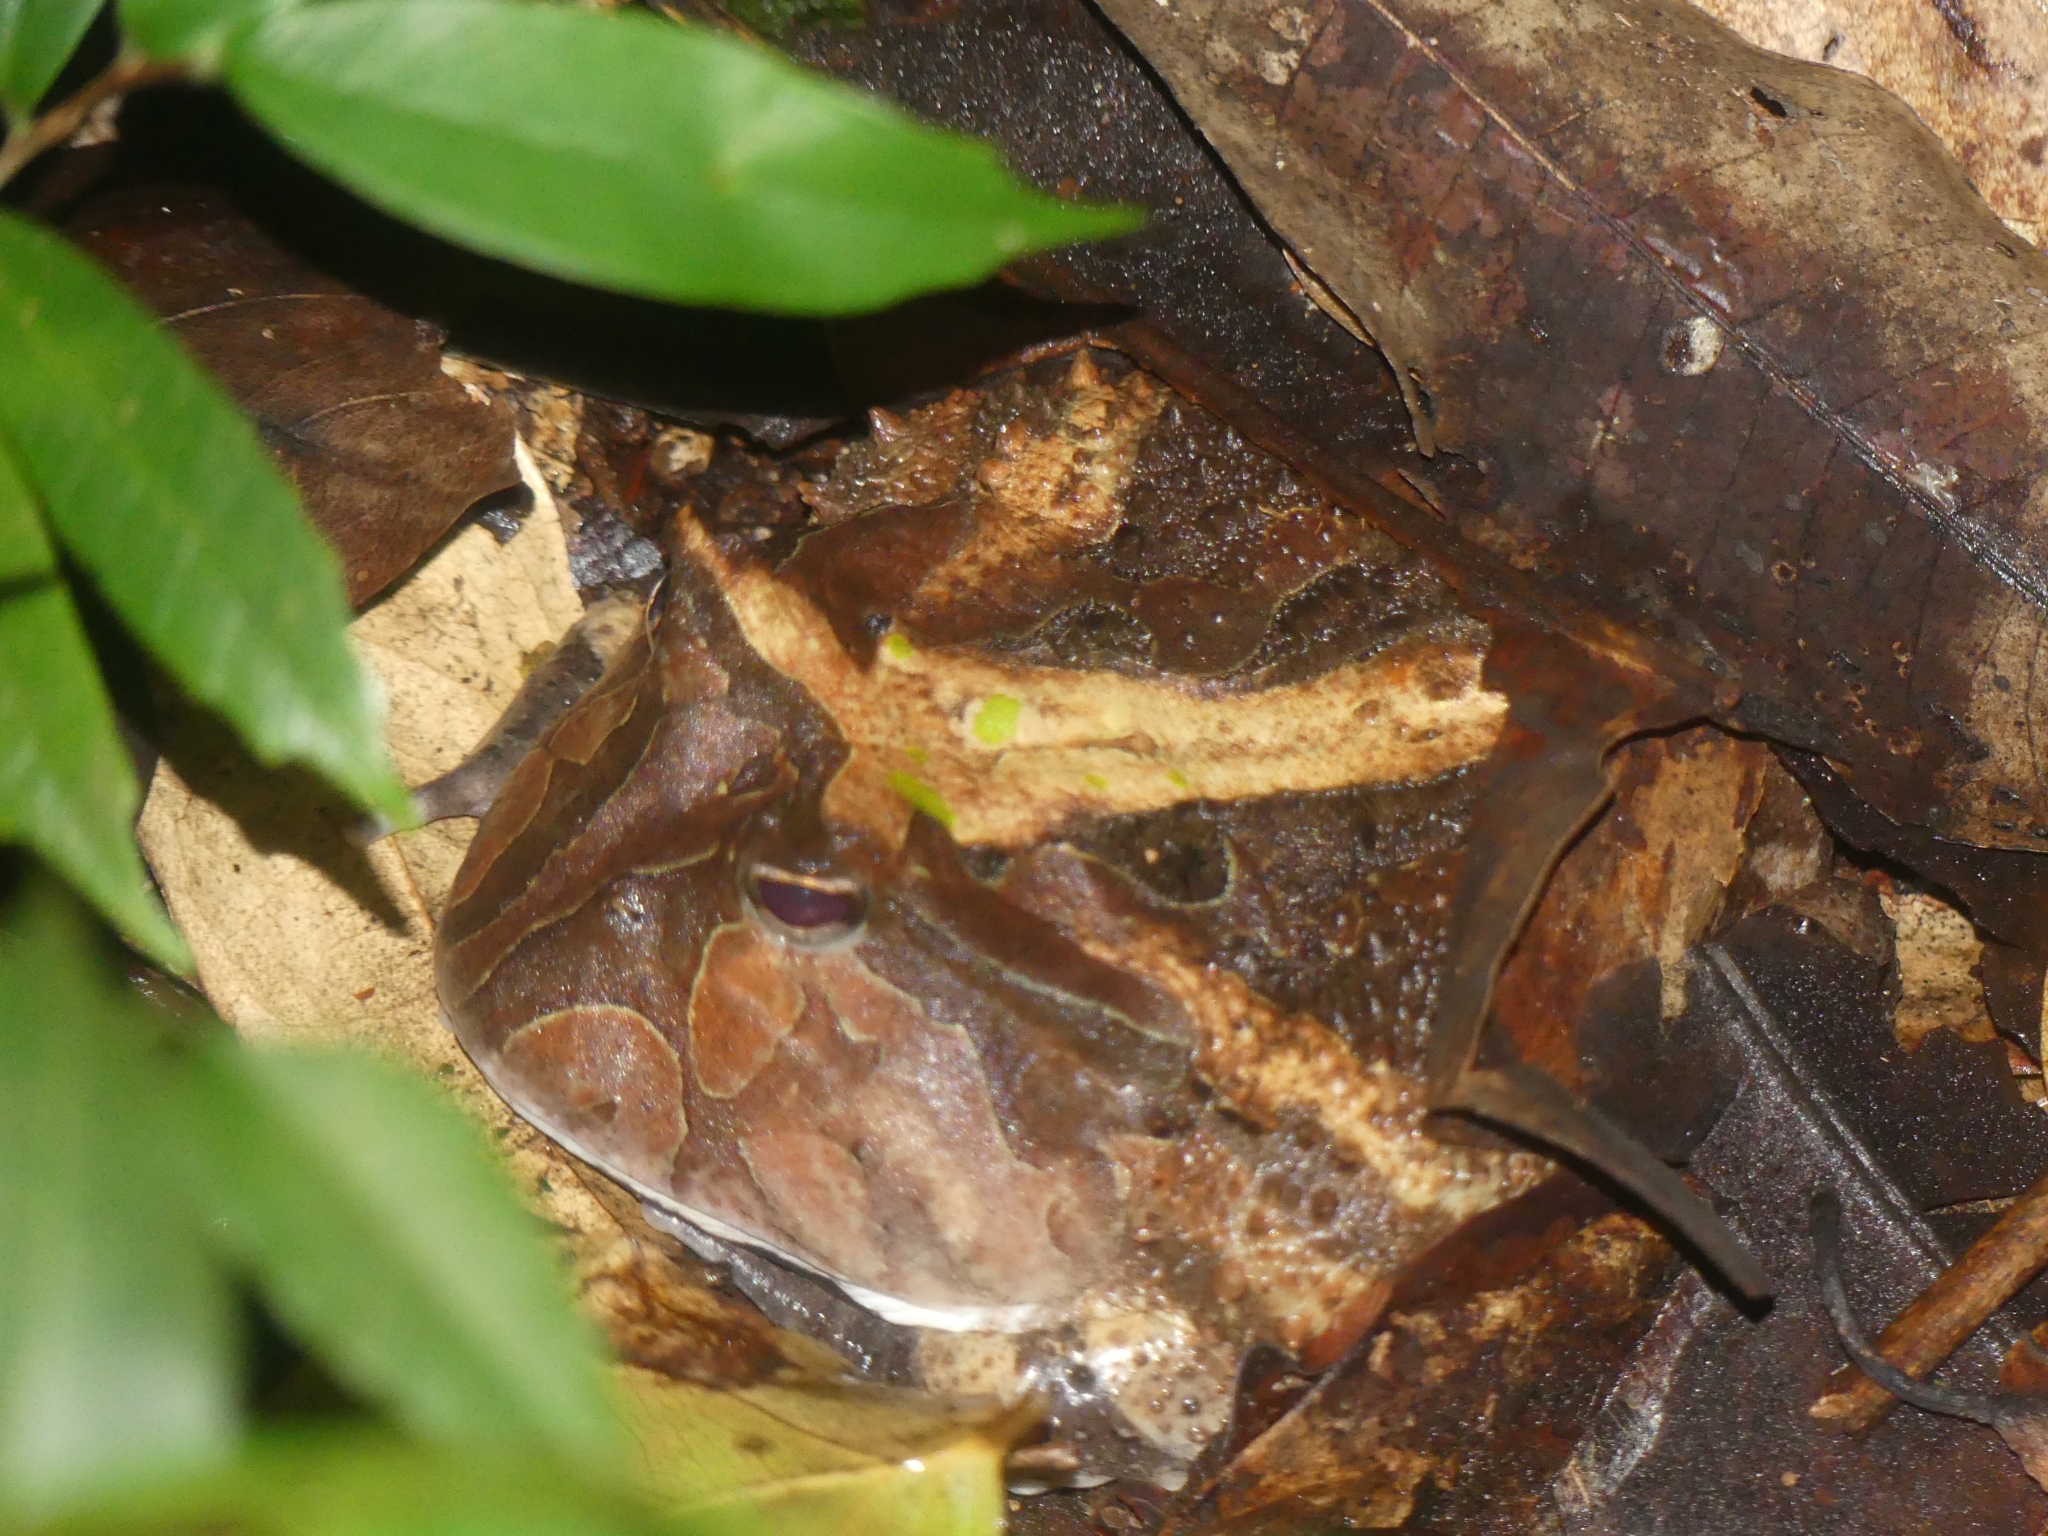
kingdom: Animalia
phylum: Chordata
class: Amphibia
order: Anura
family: Ceratophryidae
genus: Ceratophrys
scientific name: Ceratophrys cornuta
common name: Amazonian horned frog
